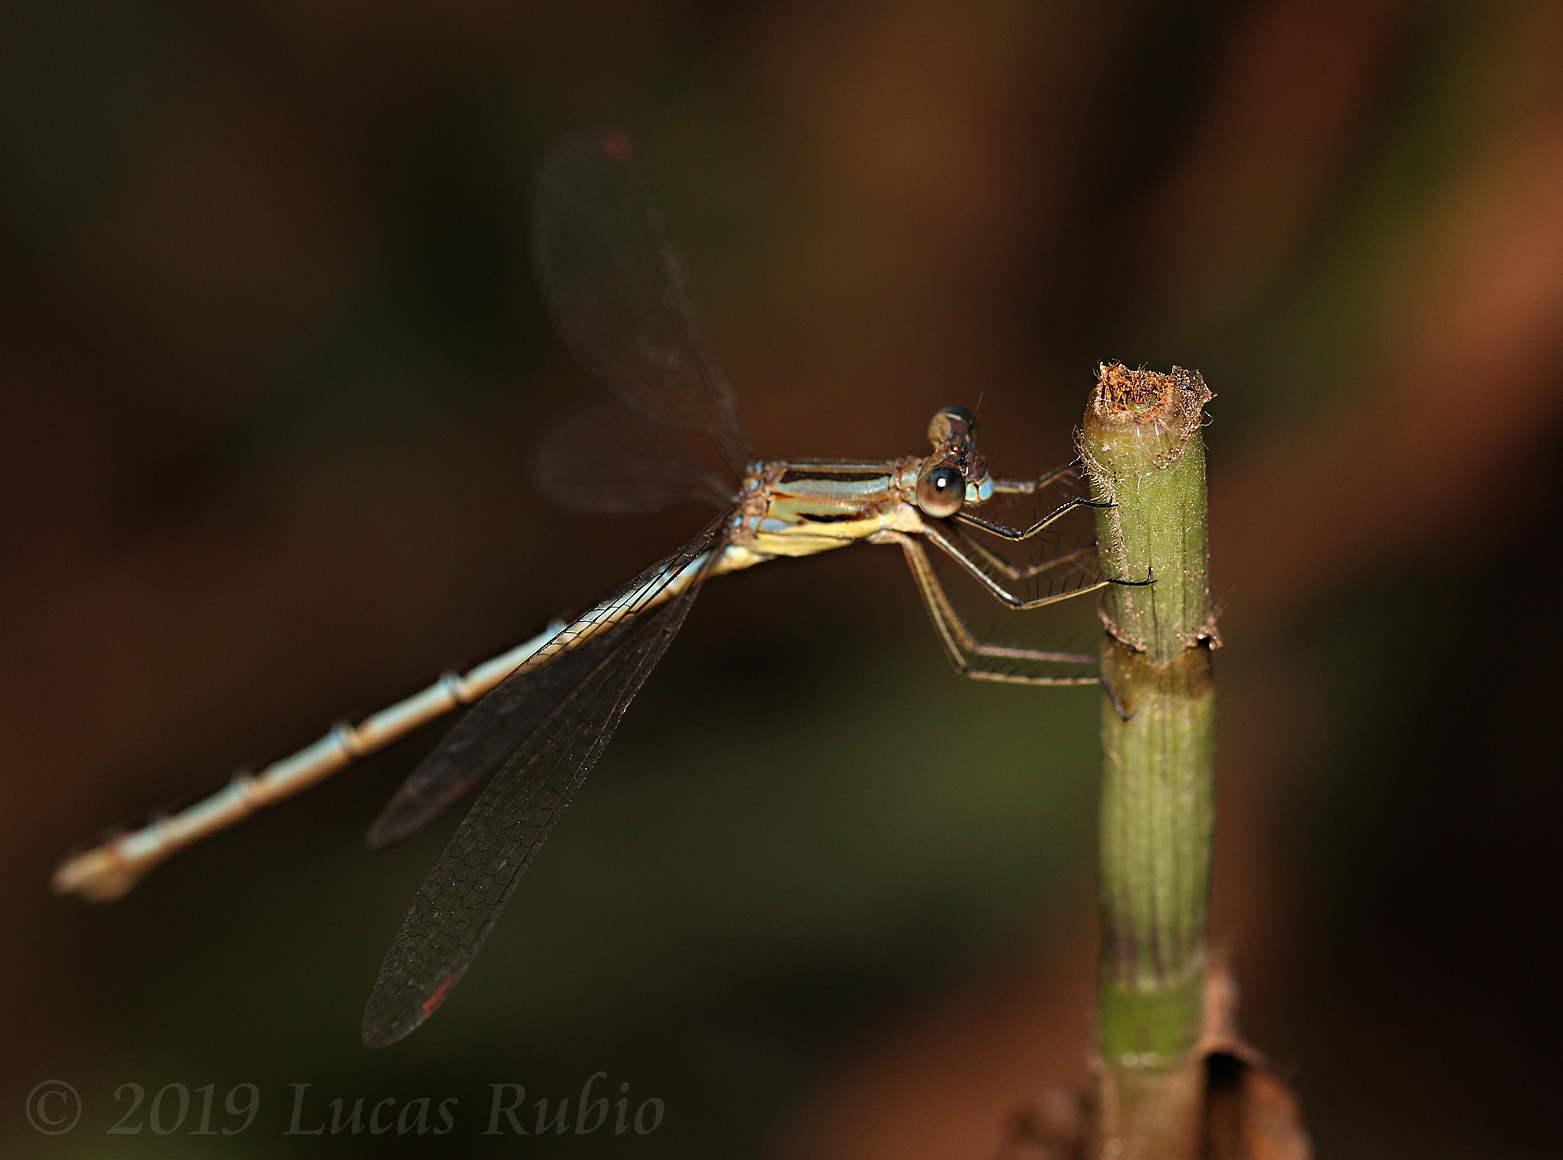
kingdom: Animalia
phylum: Arthropoda
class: Insecta
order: Odonata
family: Lestidae
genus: Lestes
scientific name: Lestes undulatus
